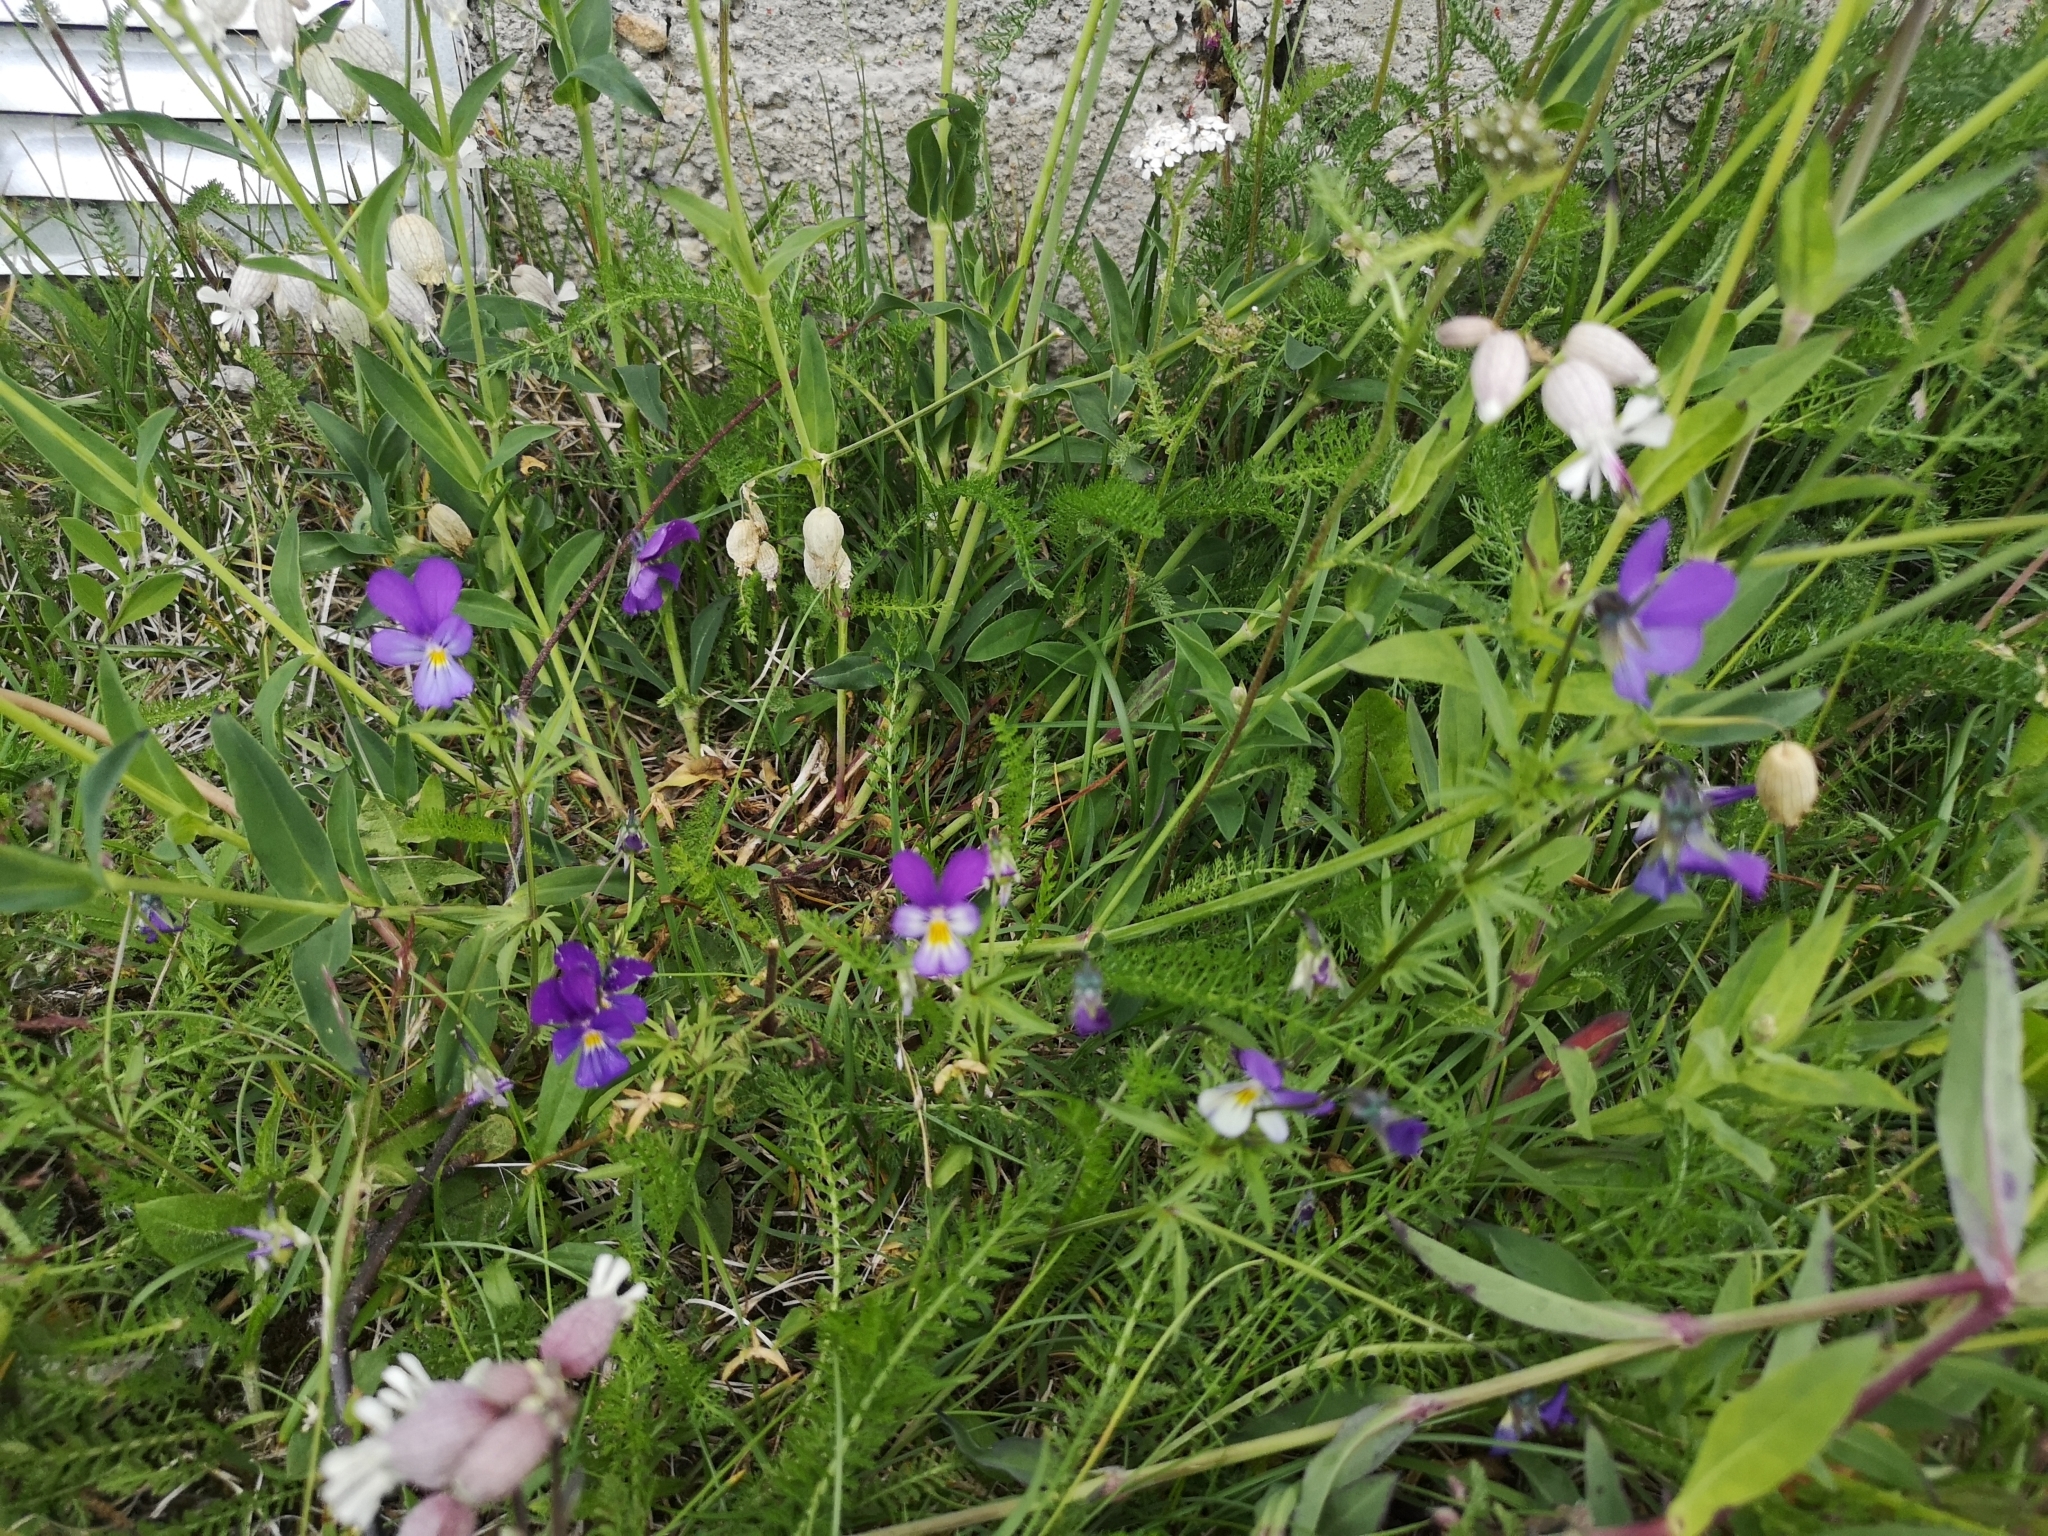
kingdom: Plantae
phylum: Tracheophyta
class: Magnoliopsida
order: Malpighiales
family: Violaceae
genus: Viola
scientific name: Viola tricolor
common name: Pansy
